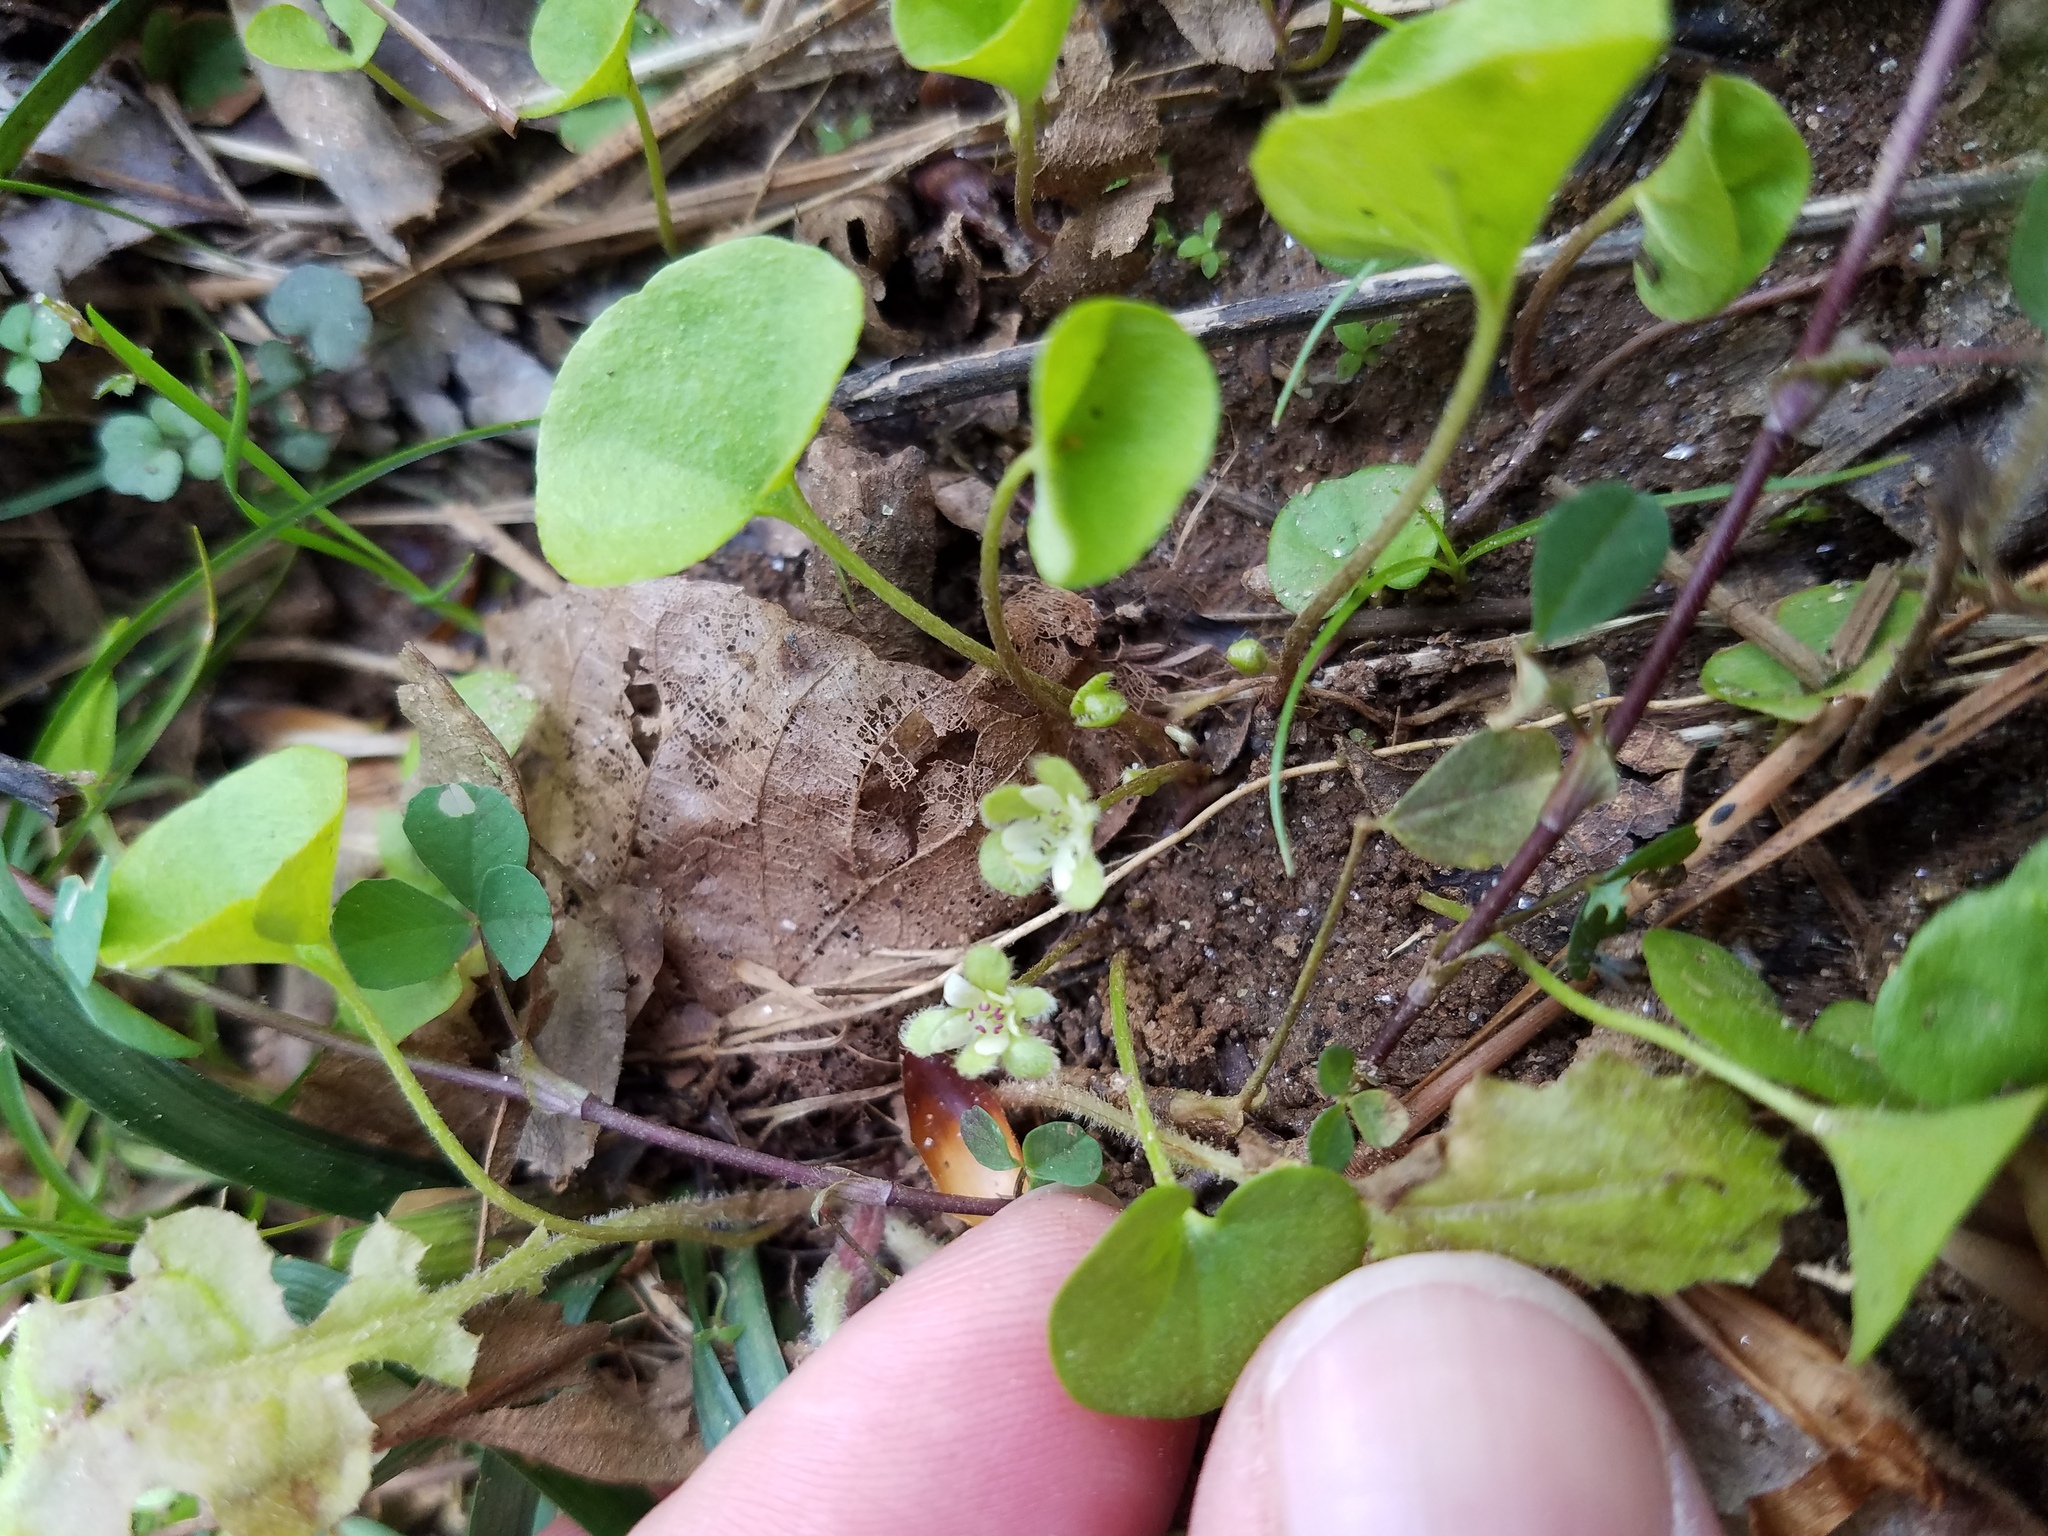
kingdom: Plantae
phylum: Tracheophyta
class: Magnoliopsida
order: Solanales
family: Convolvulaceae
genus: Dichondra
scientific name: Dichondra carolinensis
